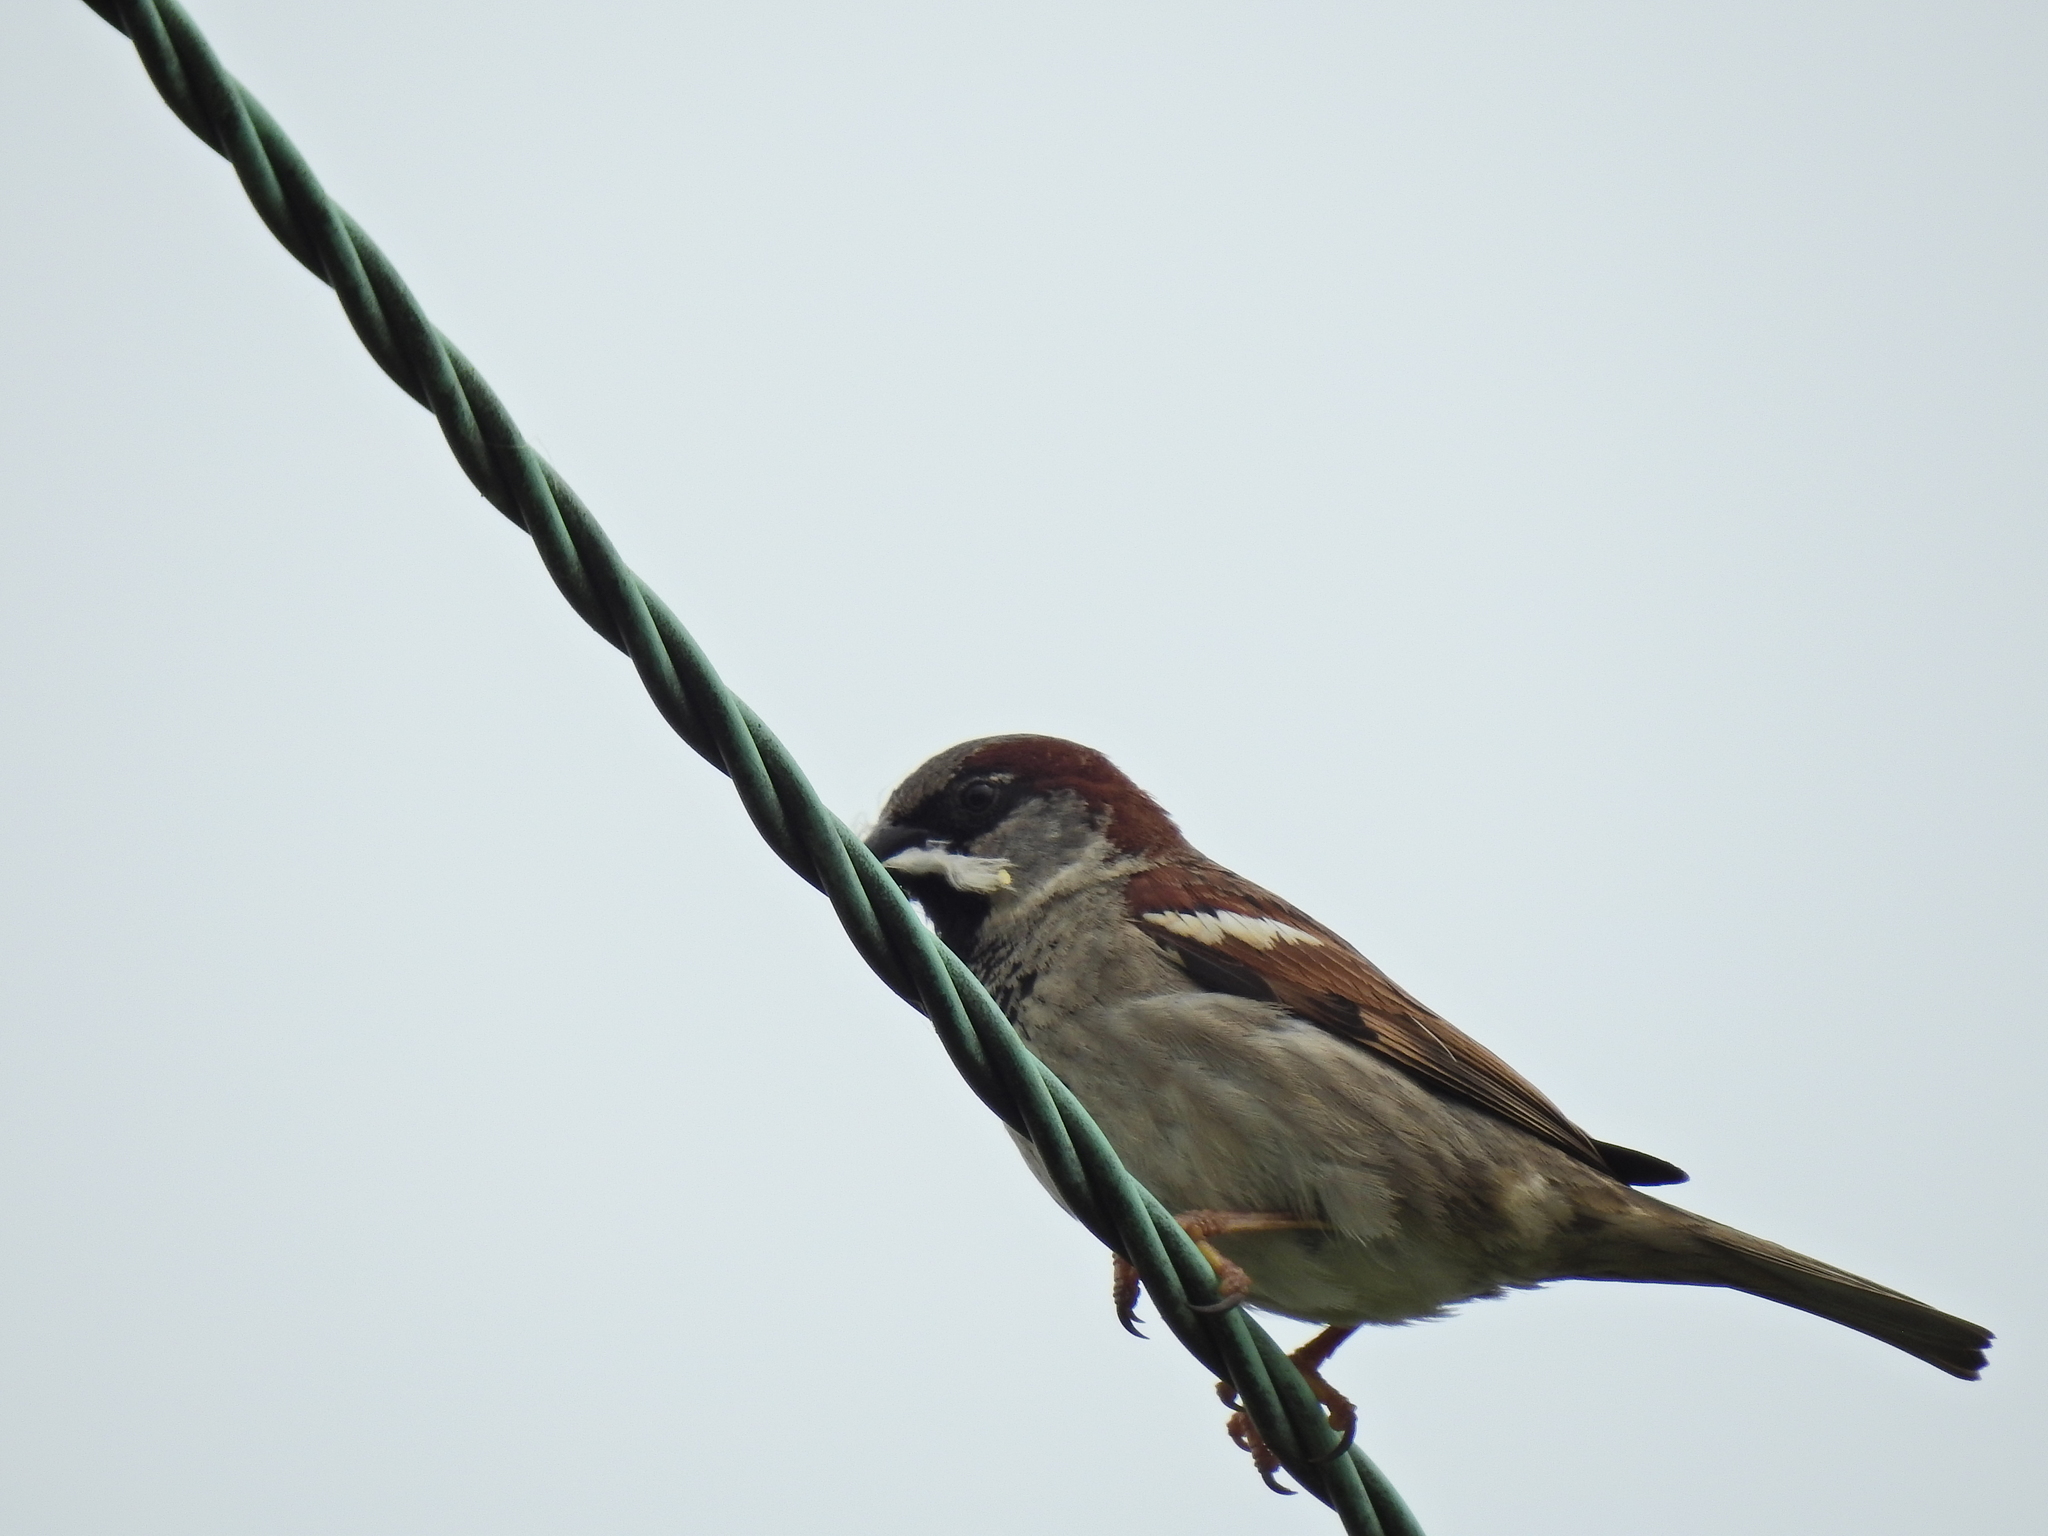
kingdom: Animalia
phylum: Chordata
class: Aves
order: Passeriformes
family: Passeridae
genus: Passer
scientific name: Passer domesticus
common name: House sparrow
